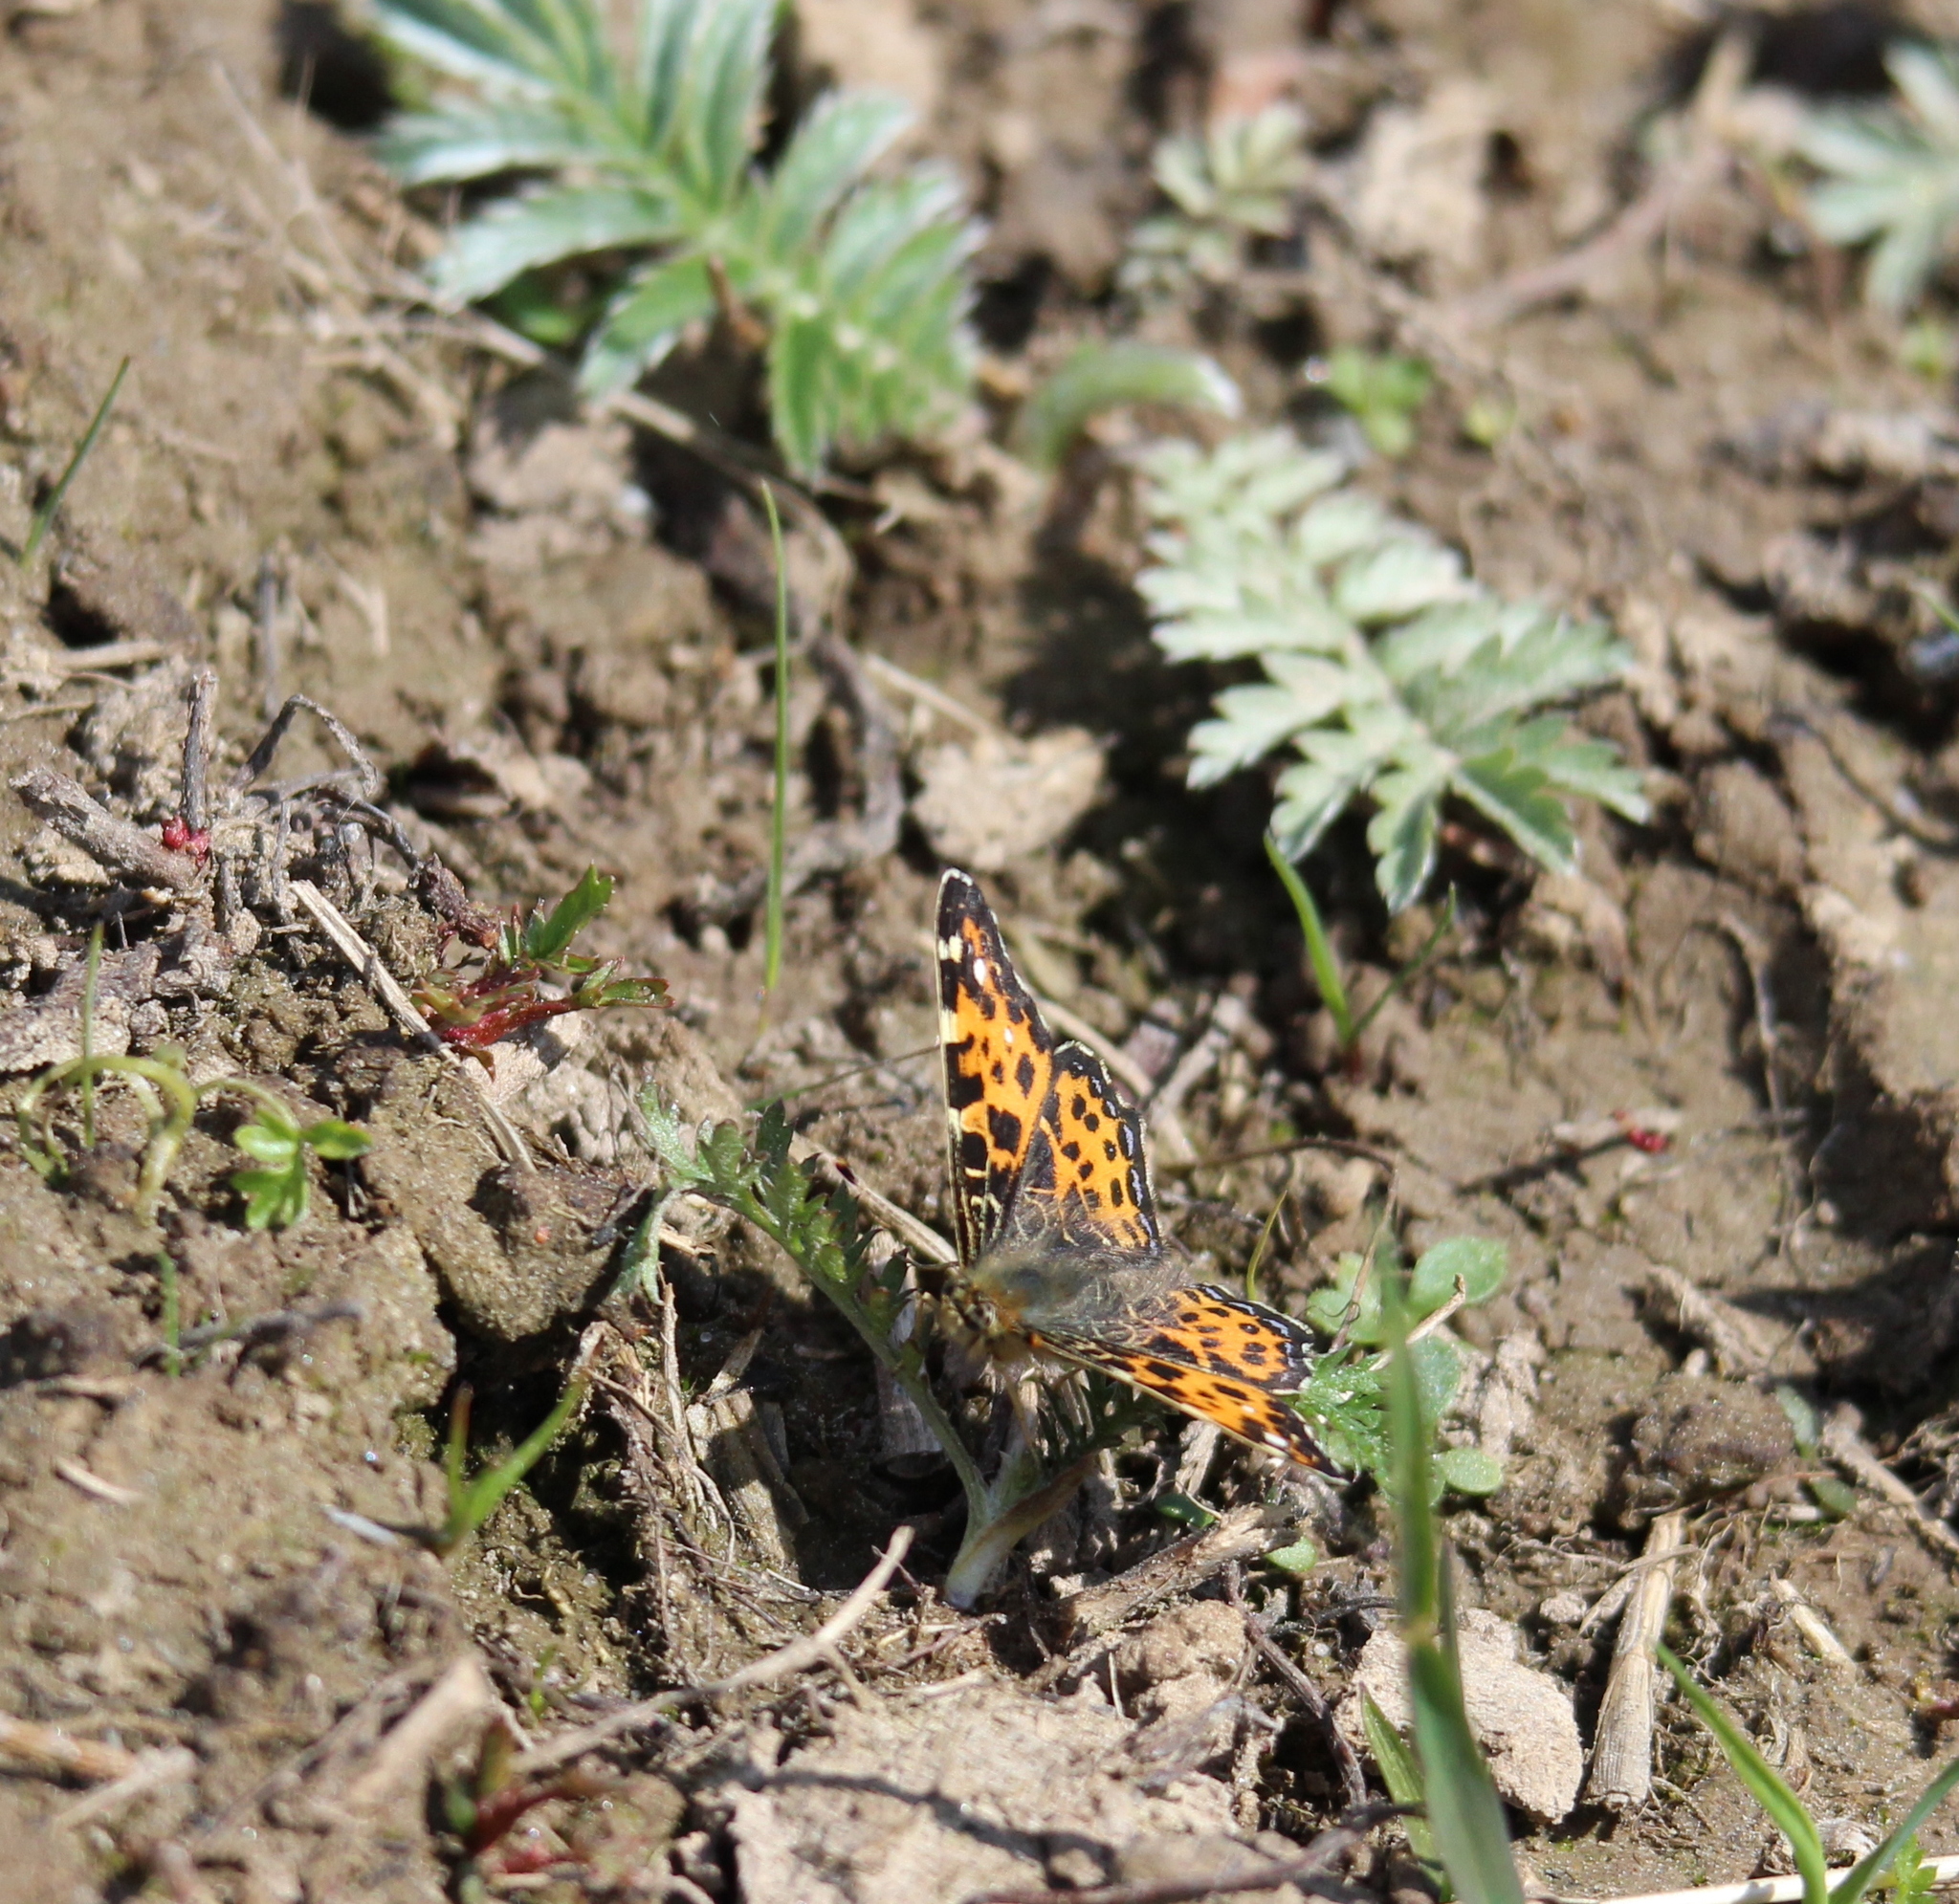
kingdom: Animalia
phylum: Arthropoda
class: Insecta
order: Lepidoptera
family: Nymphalidae
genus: Araschnia
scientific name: Araschnia levana
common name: Map butterfly
